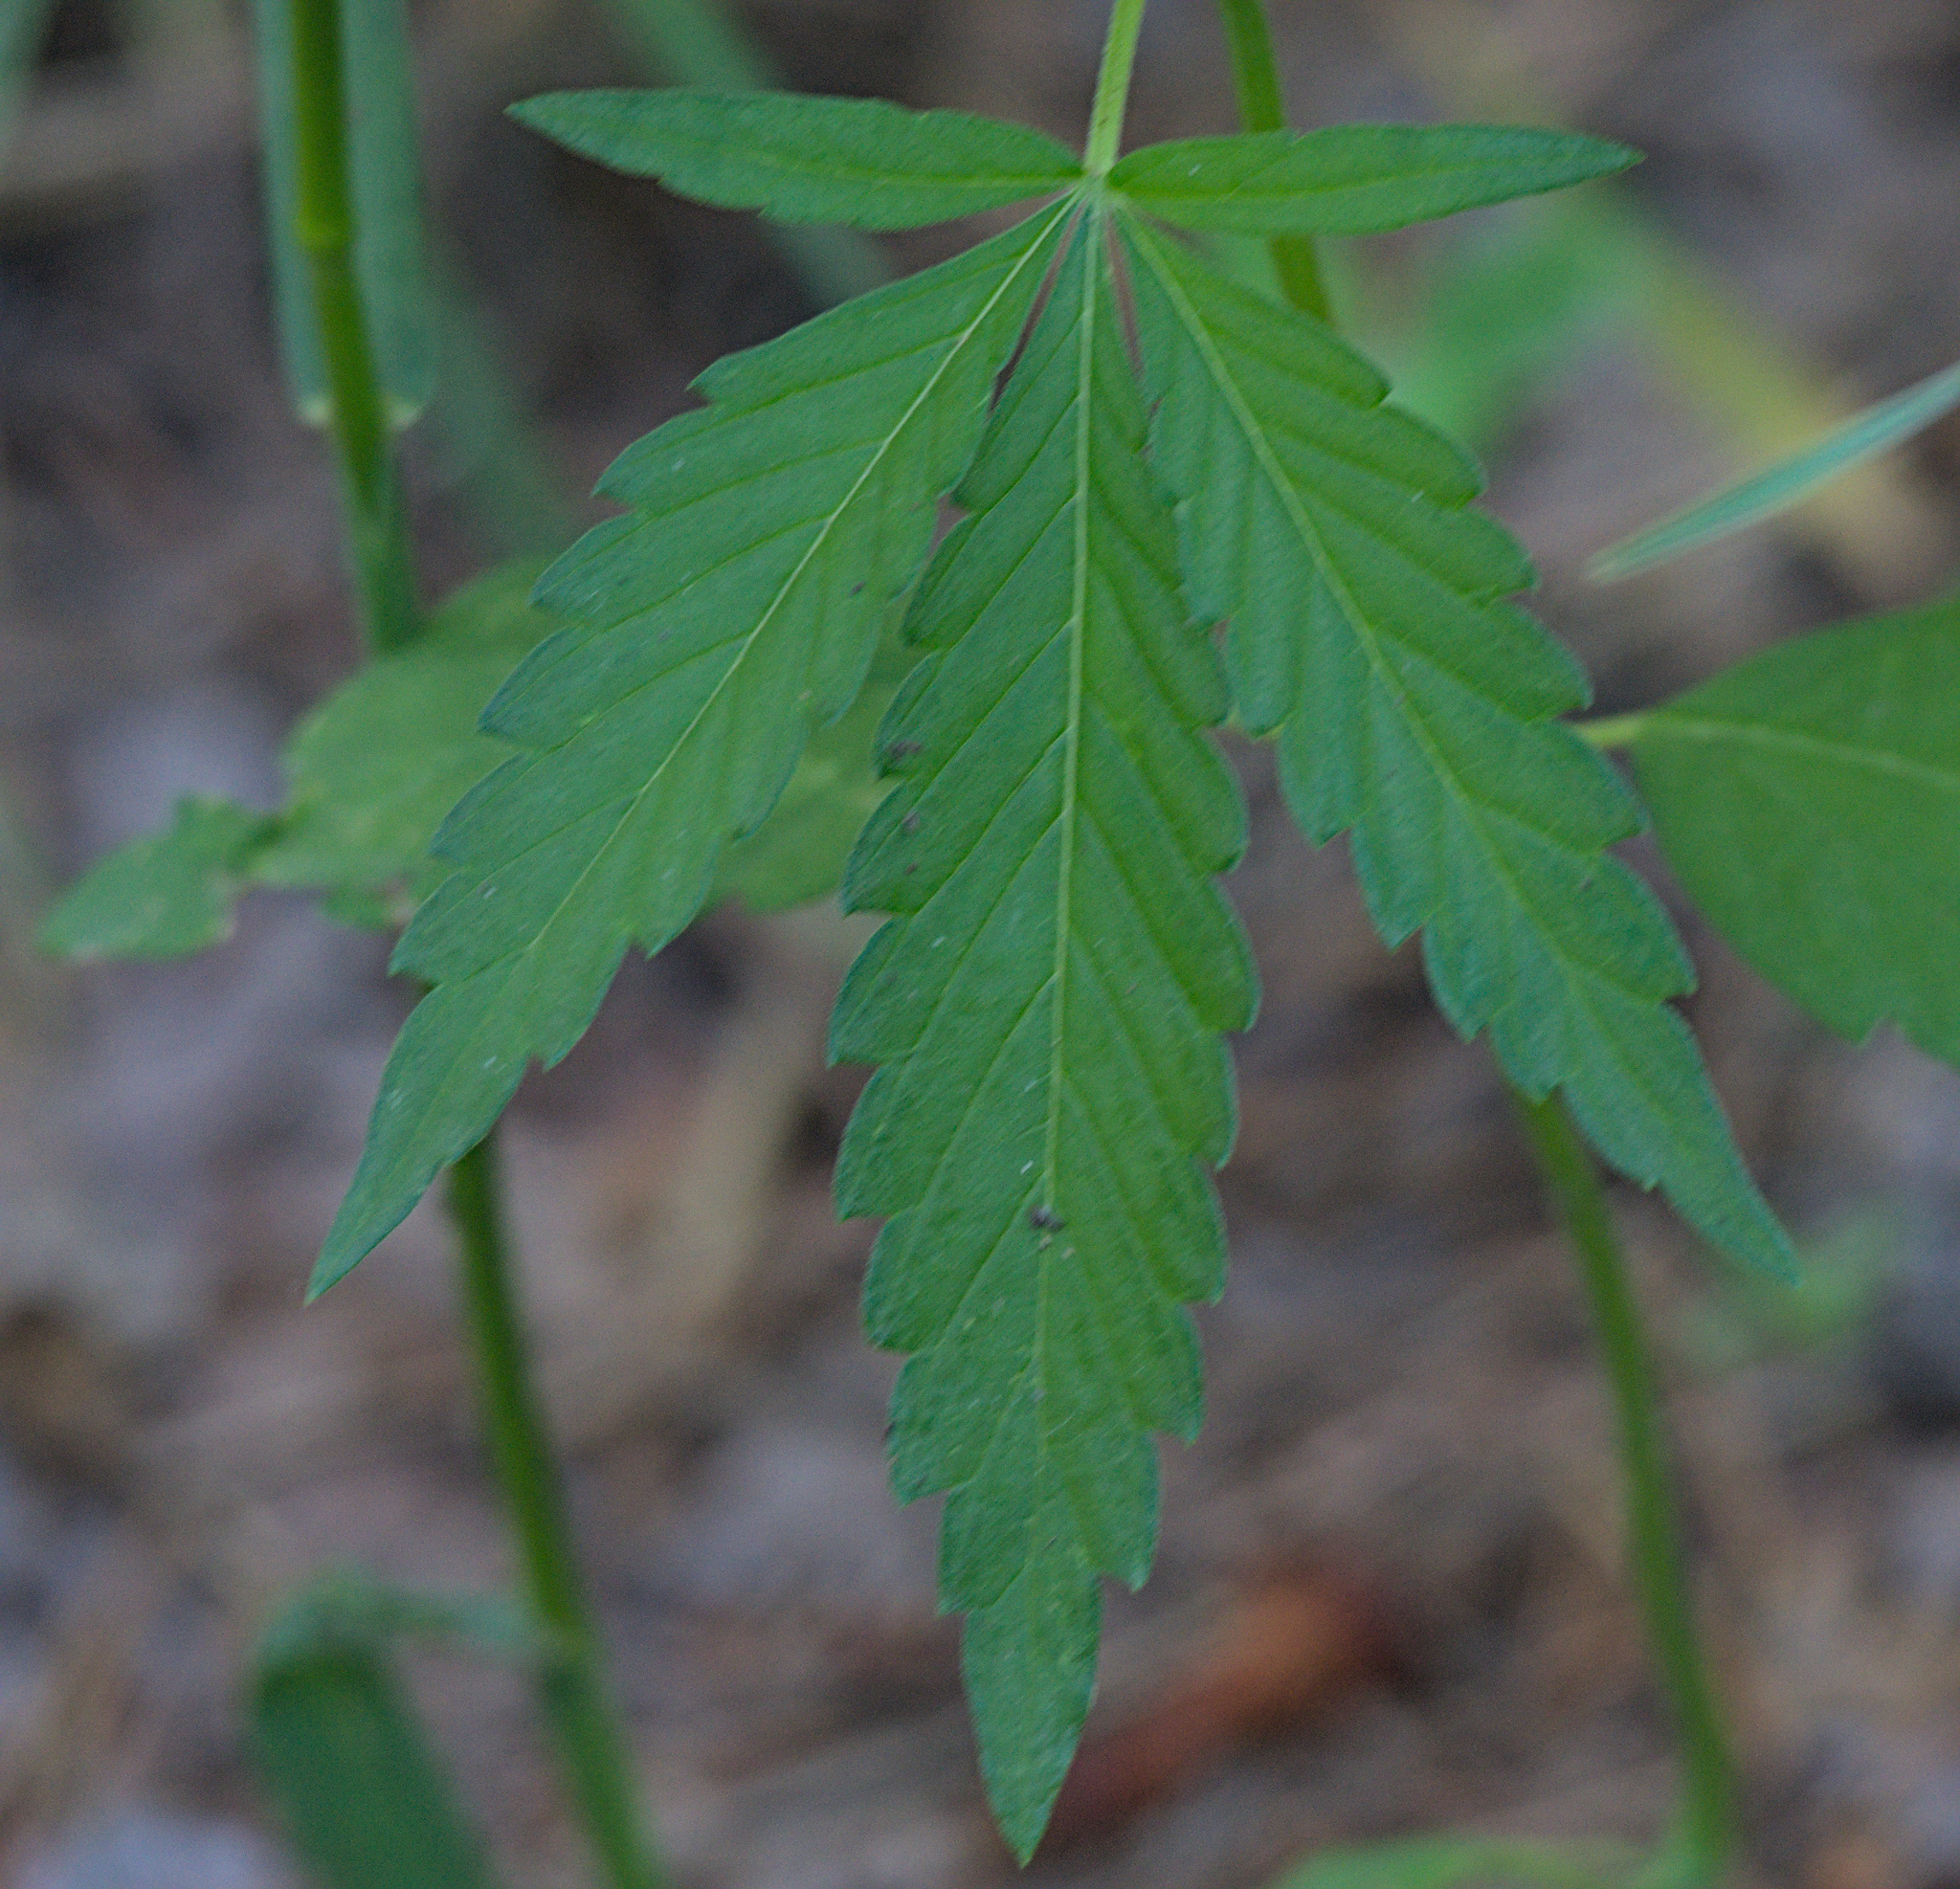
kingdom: Plantae
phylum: Tracheophyta
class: Magnoliopsida
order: Rosales
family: Cannabaceae
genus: Cannabis
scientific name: Cannabis sativa
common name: Hemp
